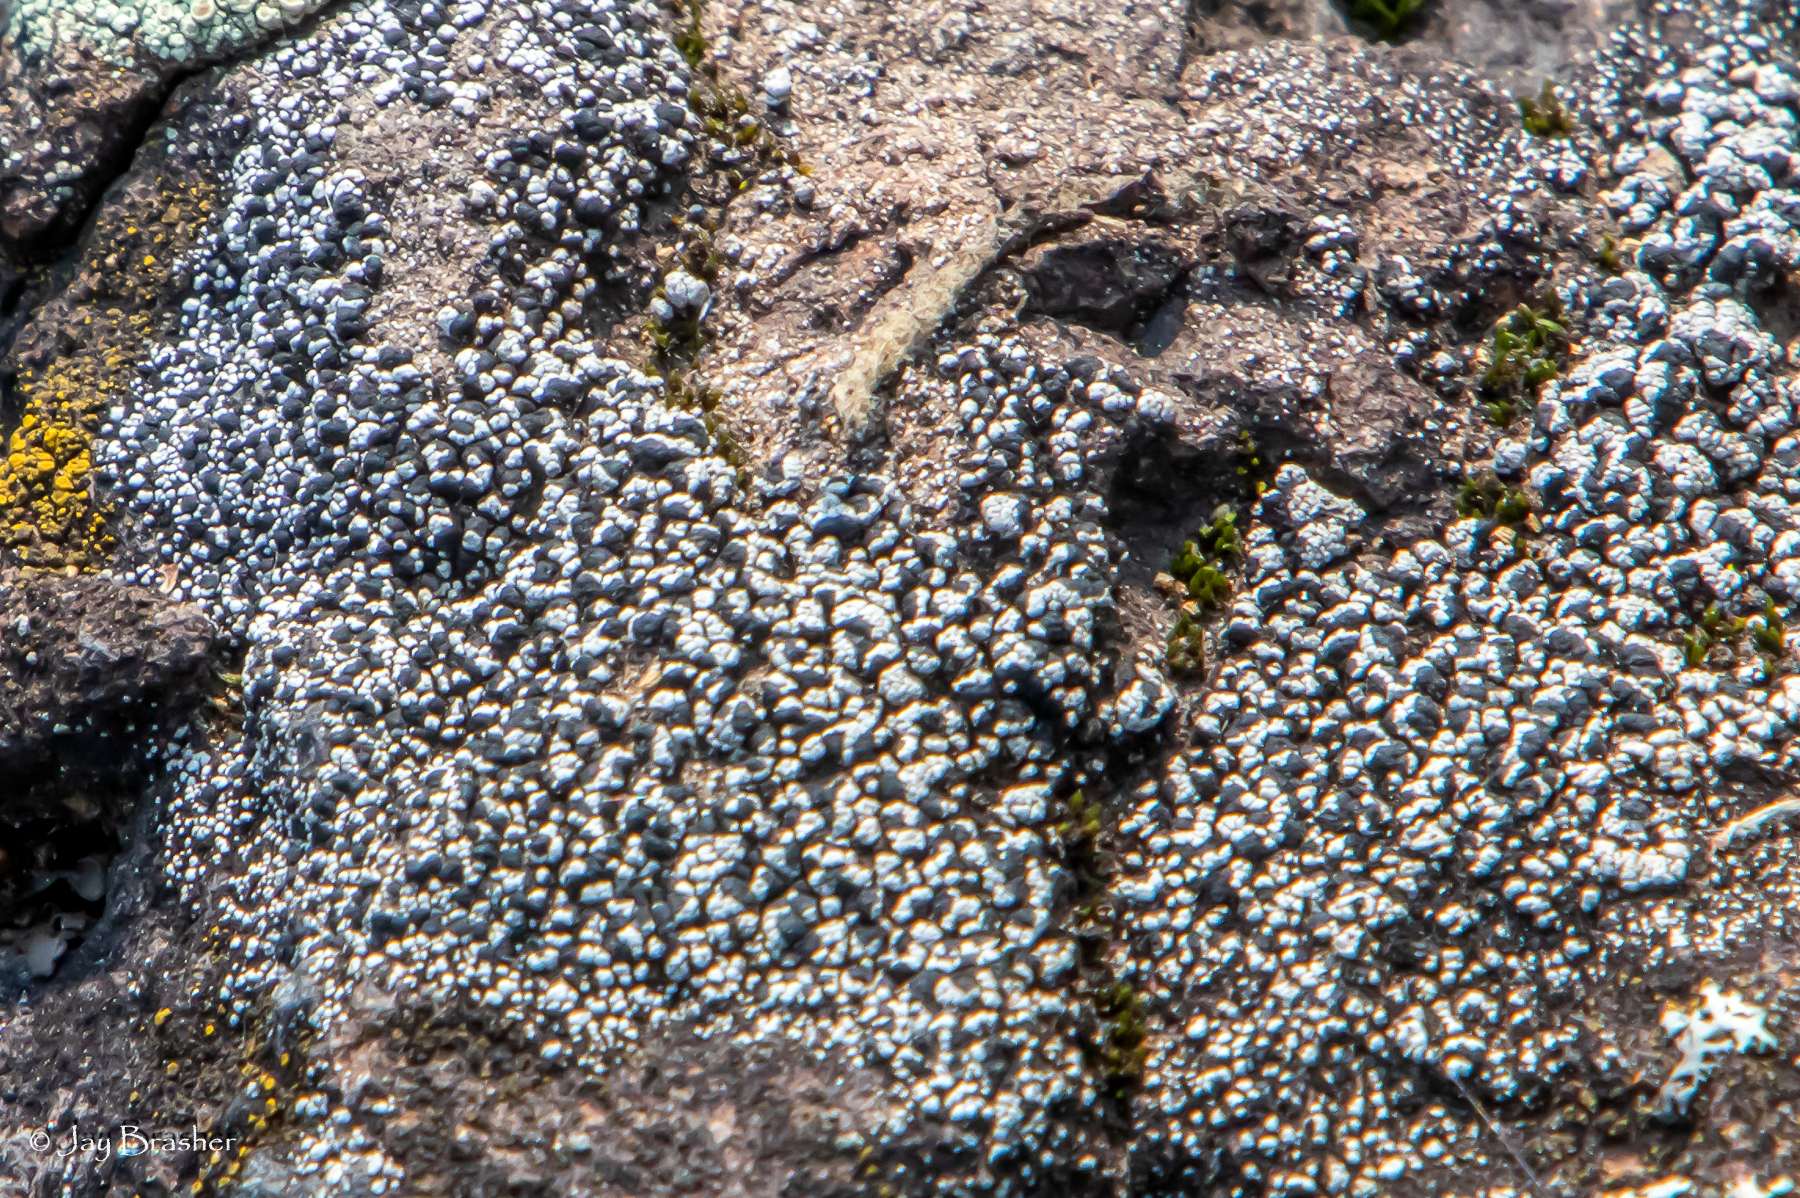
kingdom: Fungi
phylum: Ascomycota
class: Lecanoromycetes
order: Lecanorales
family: Ramalinaceae
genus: Thalloidima
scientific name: Thalloidima sedifolium
